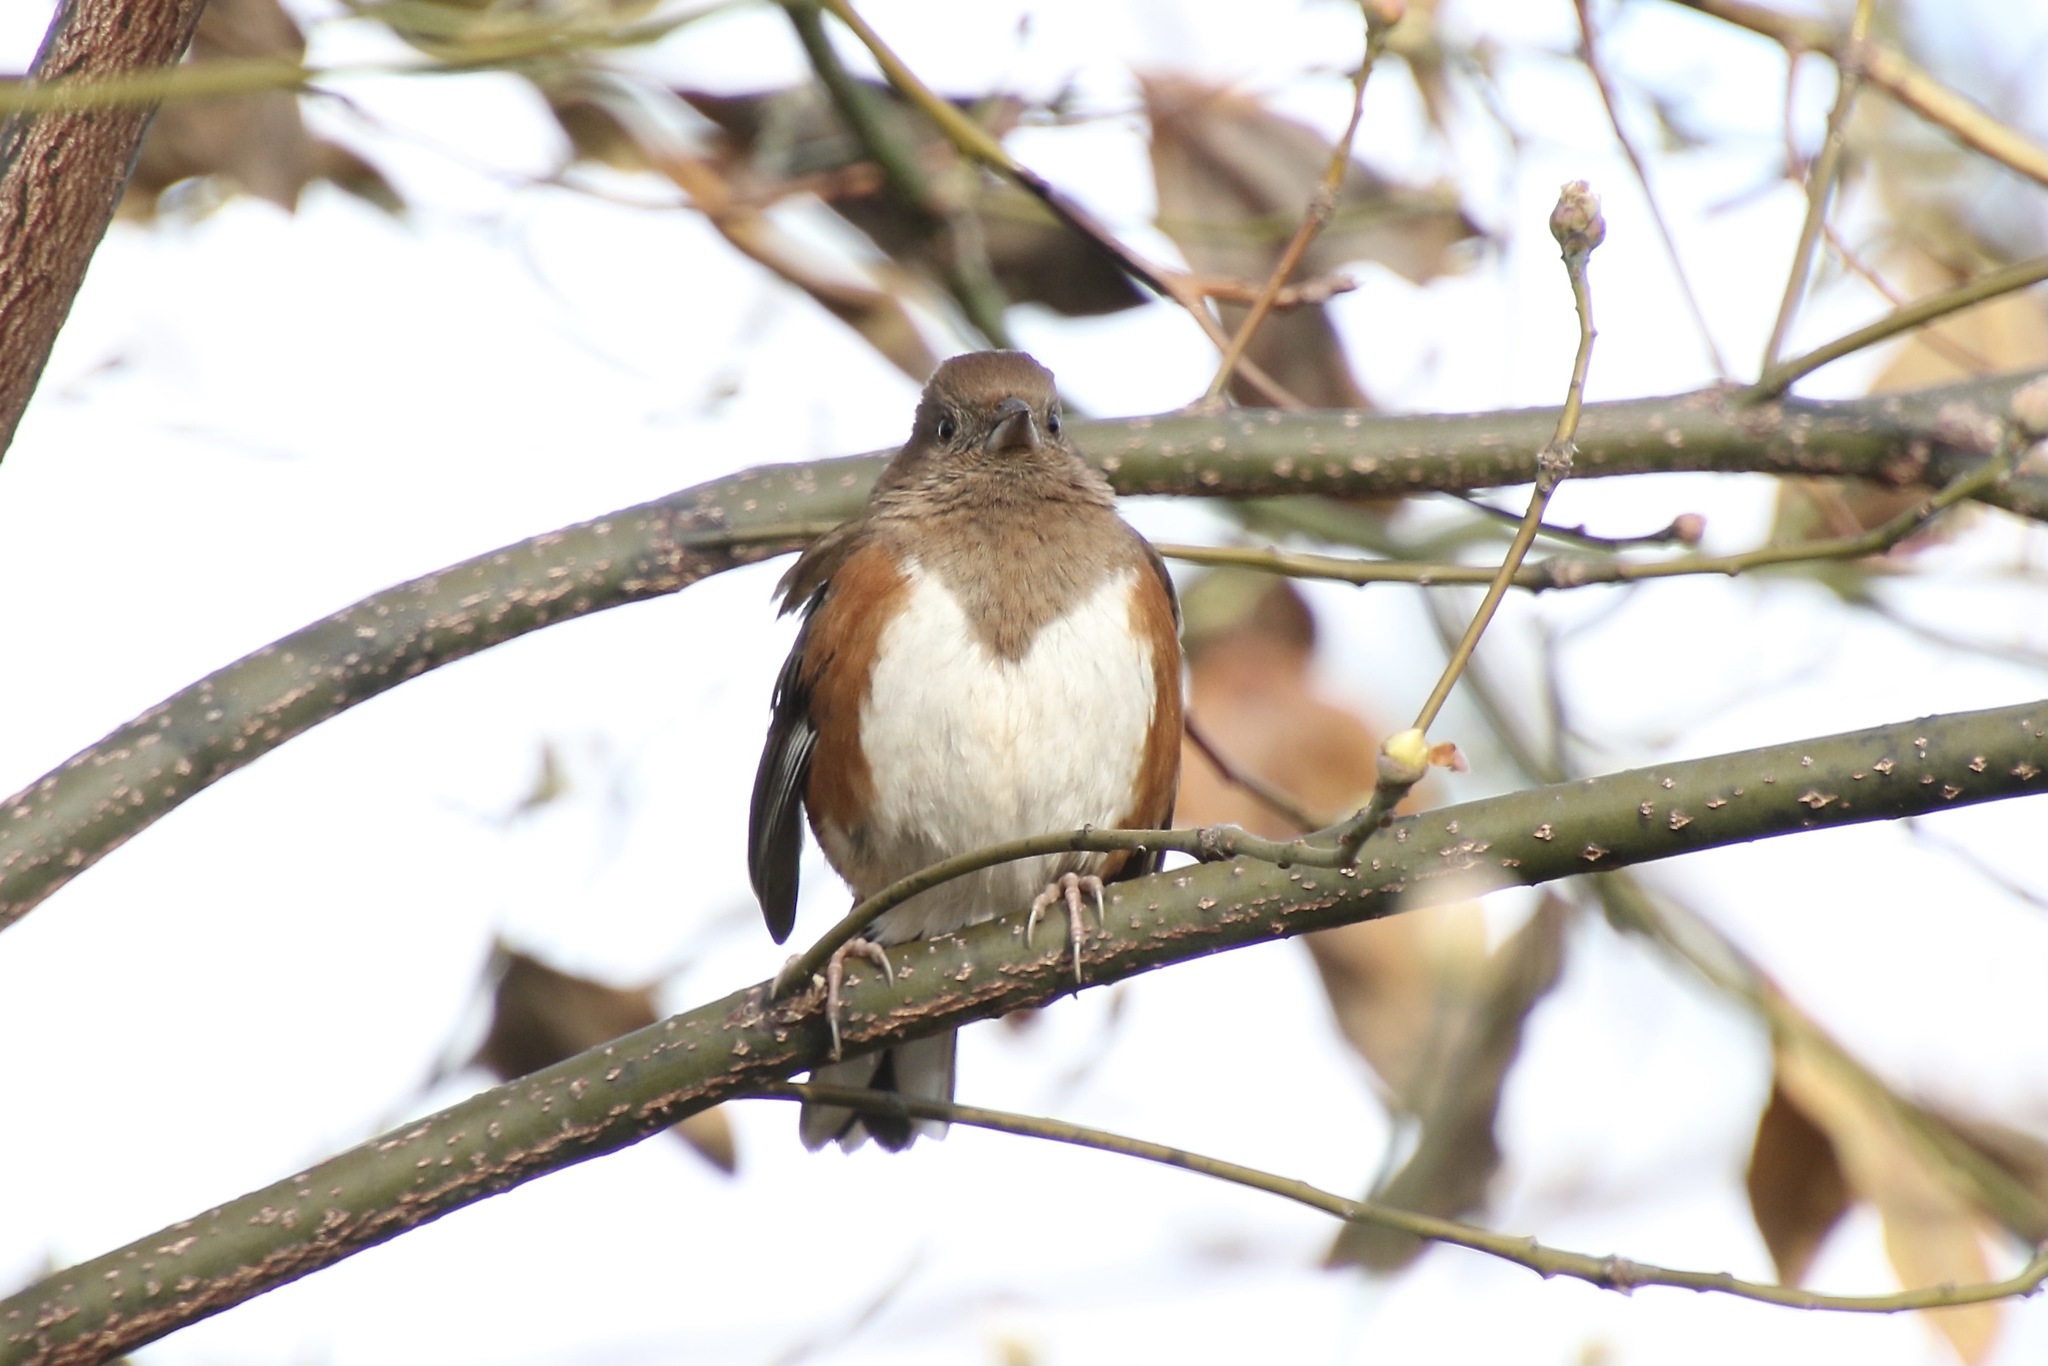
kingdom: Animalia
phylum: Chordata
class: Aves
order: Passeriformes
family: Passerellidae
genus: Pipilo
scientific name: Pipilo erythrophthalmus
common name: Eastern towhee
